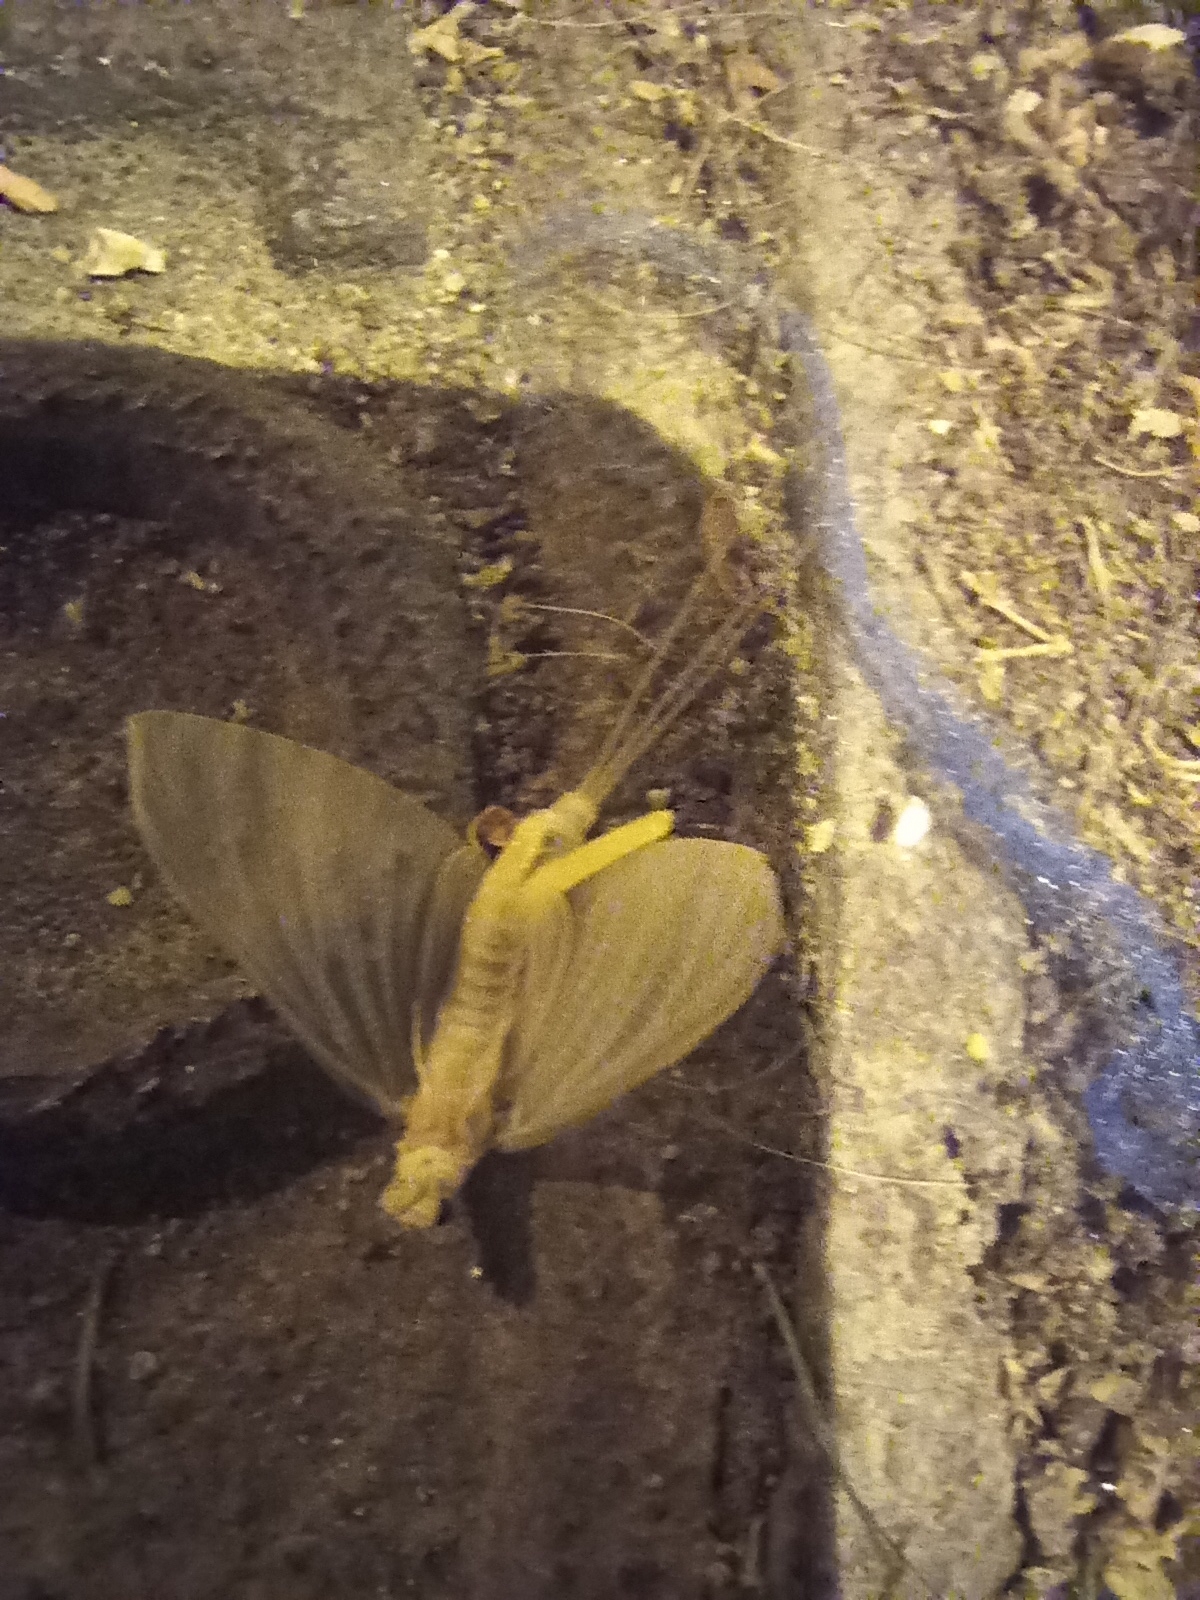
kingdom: Animalia
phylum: Arthropoda
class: Insecta
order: Ephemeroptera
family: Polymitarcyidae
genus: Ephoron
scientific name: Ephoron virgo
